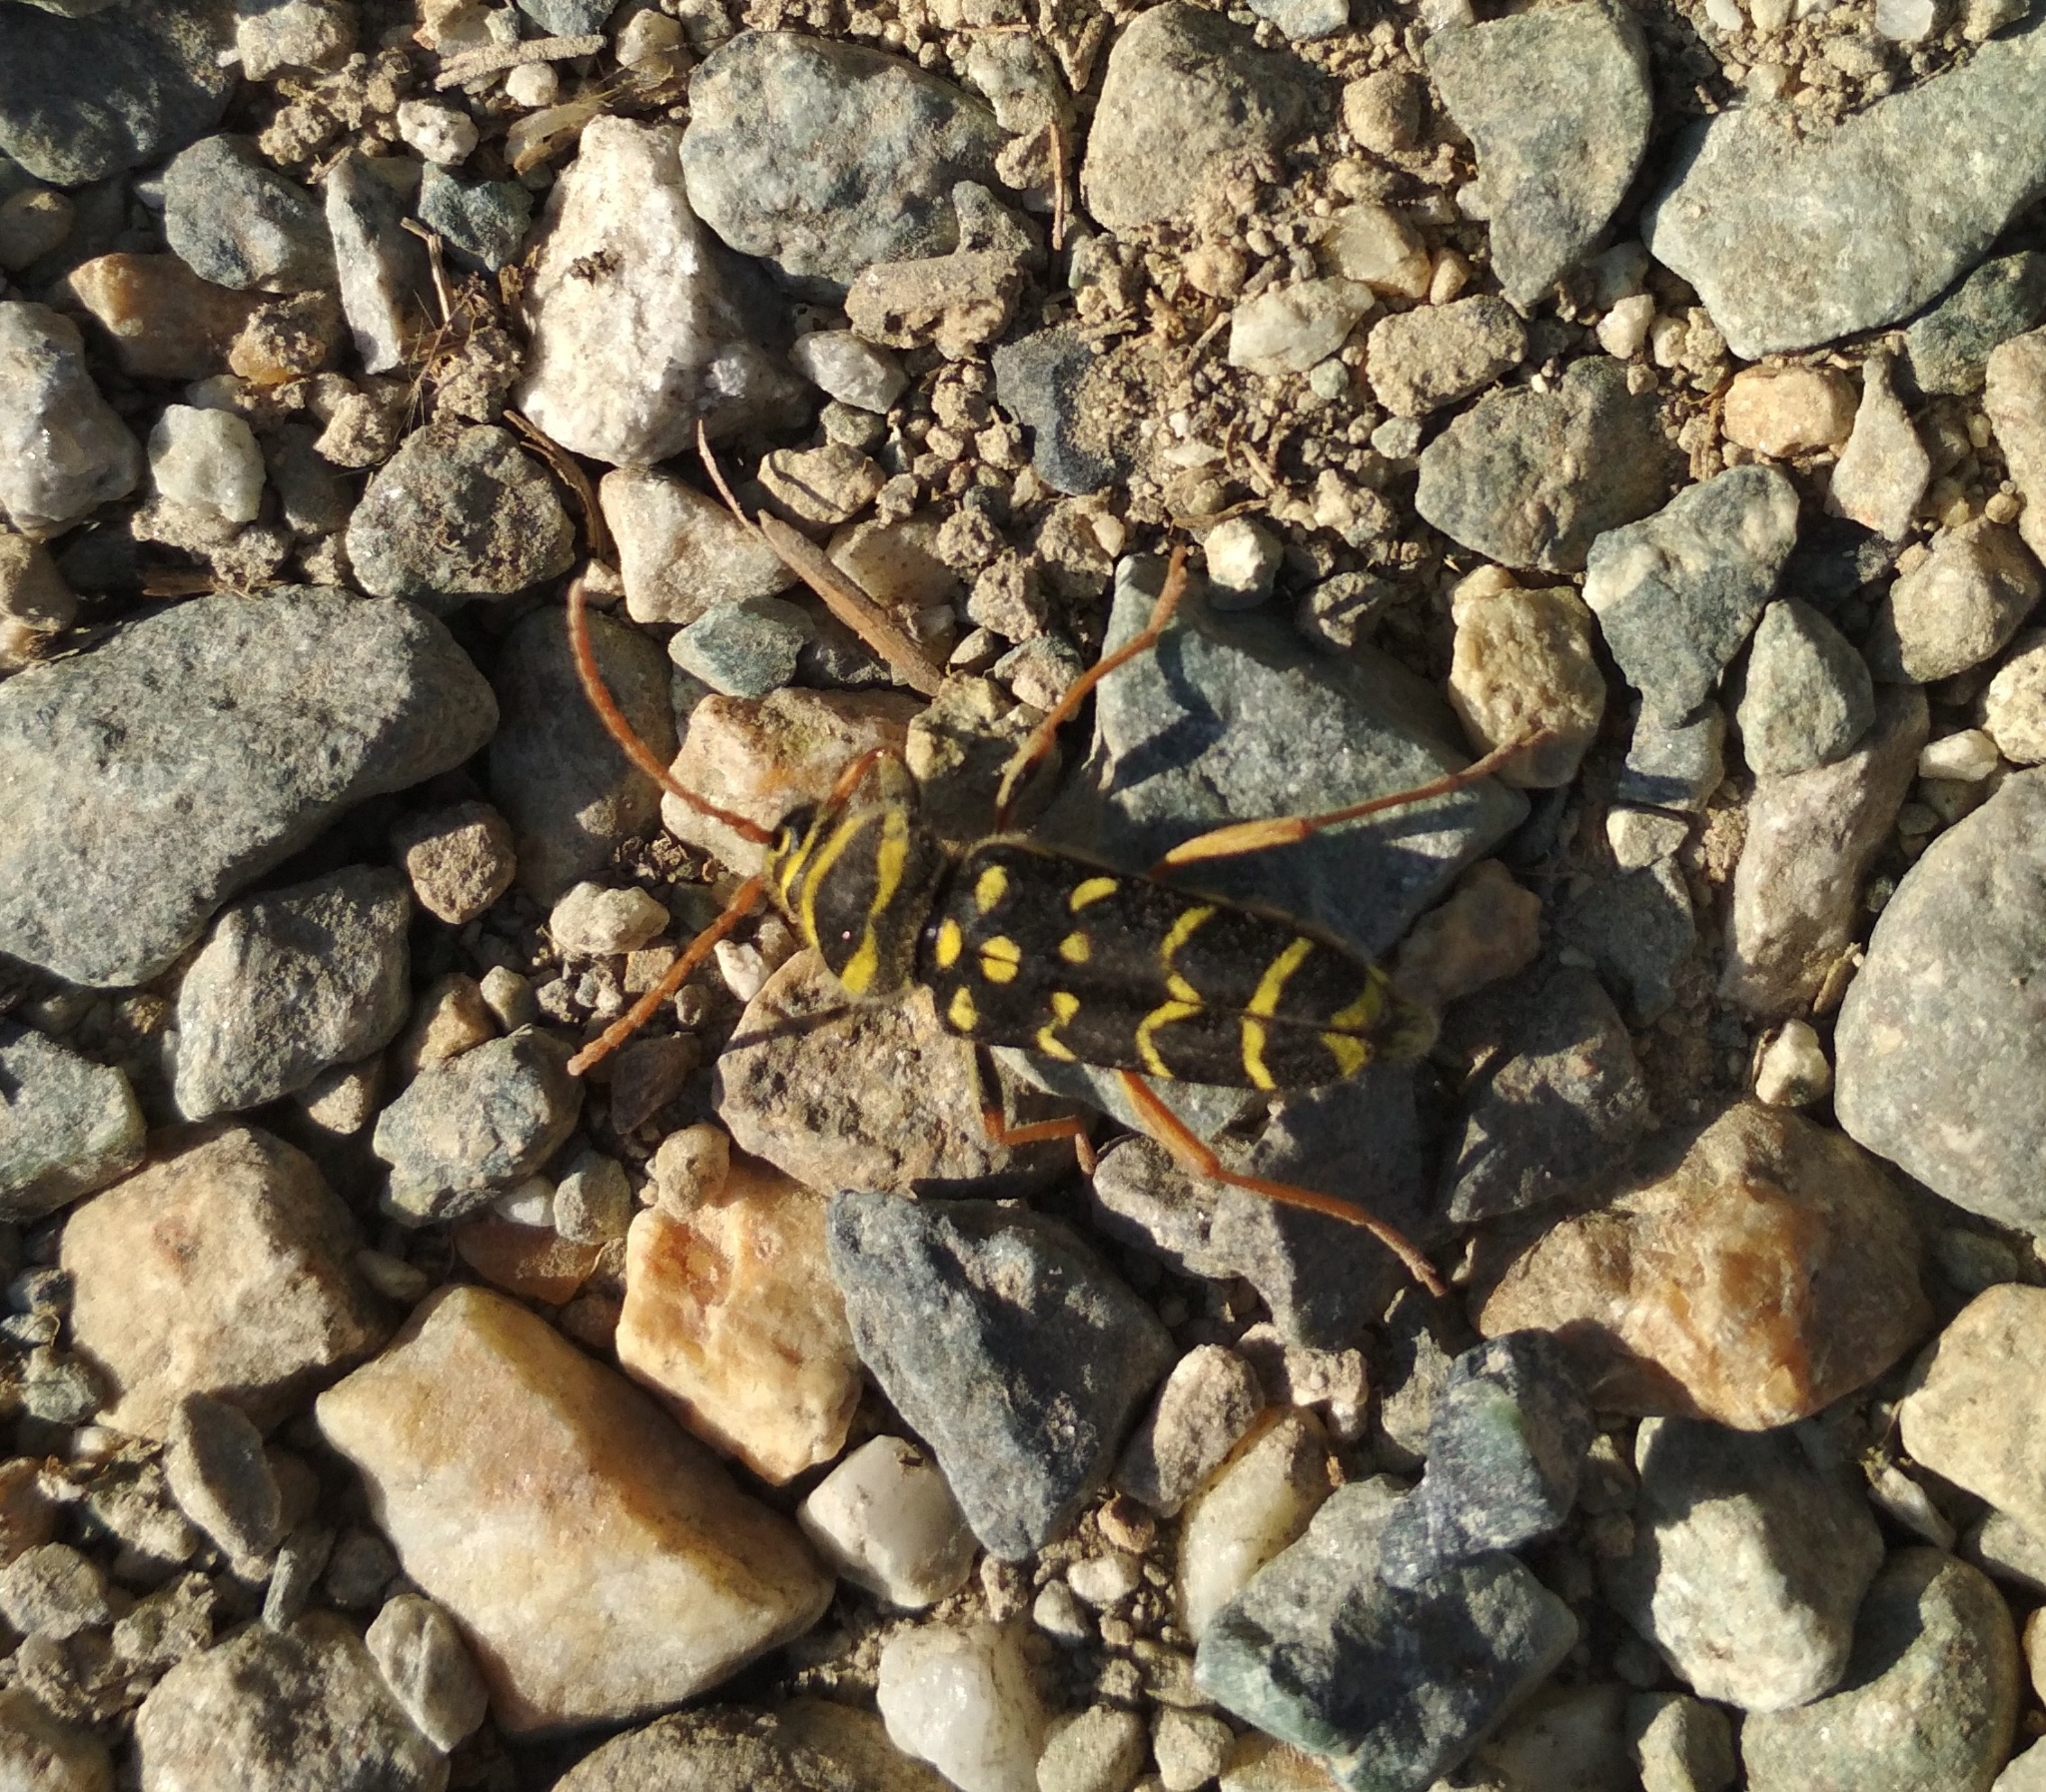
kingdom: Animalia
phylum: Arthropoda
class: Insecta
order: Coleoptera
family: Cerambycidae
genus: Plagionotus
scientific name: Plagionotus arcuatus
